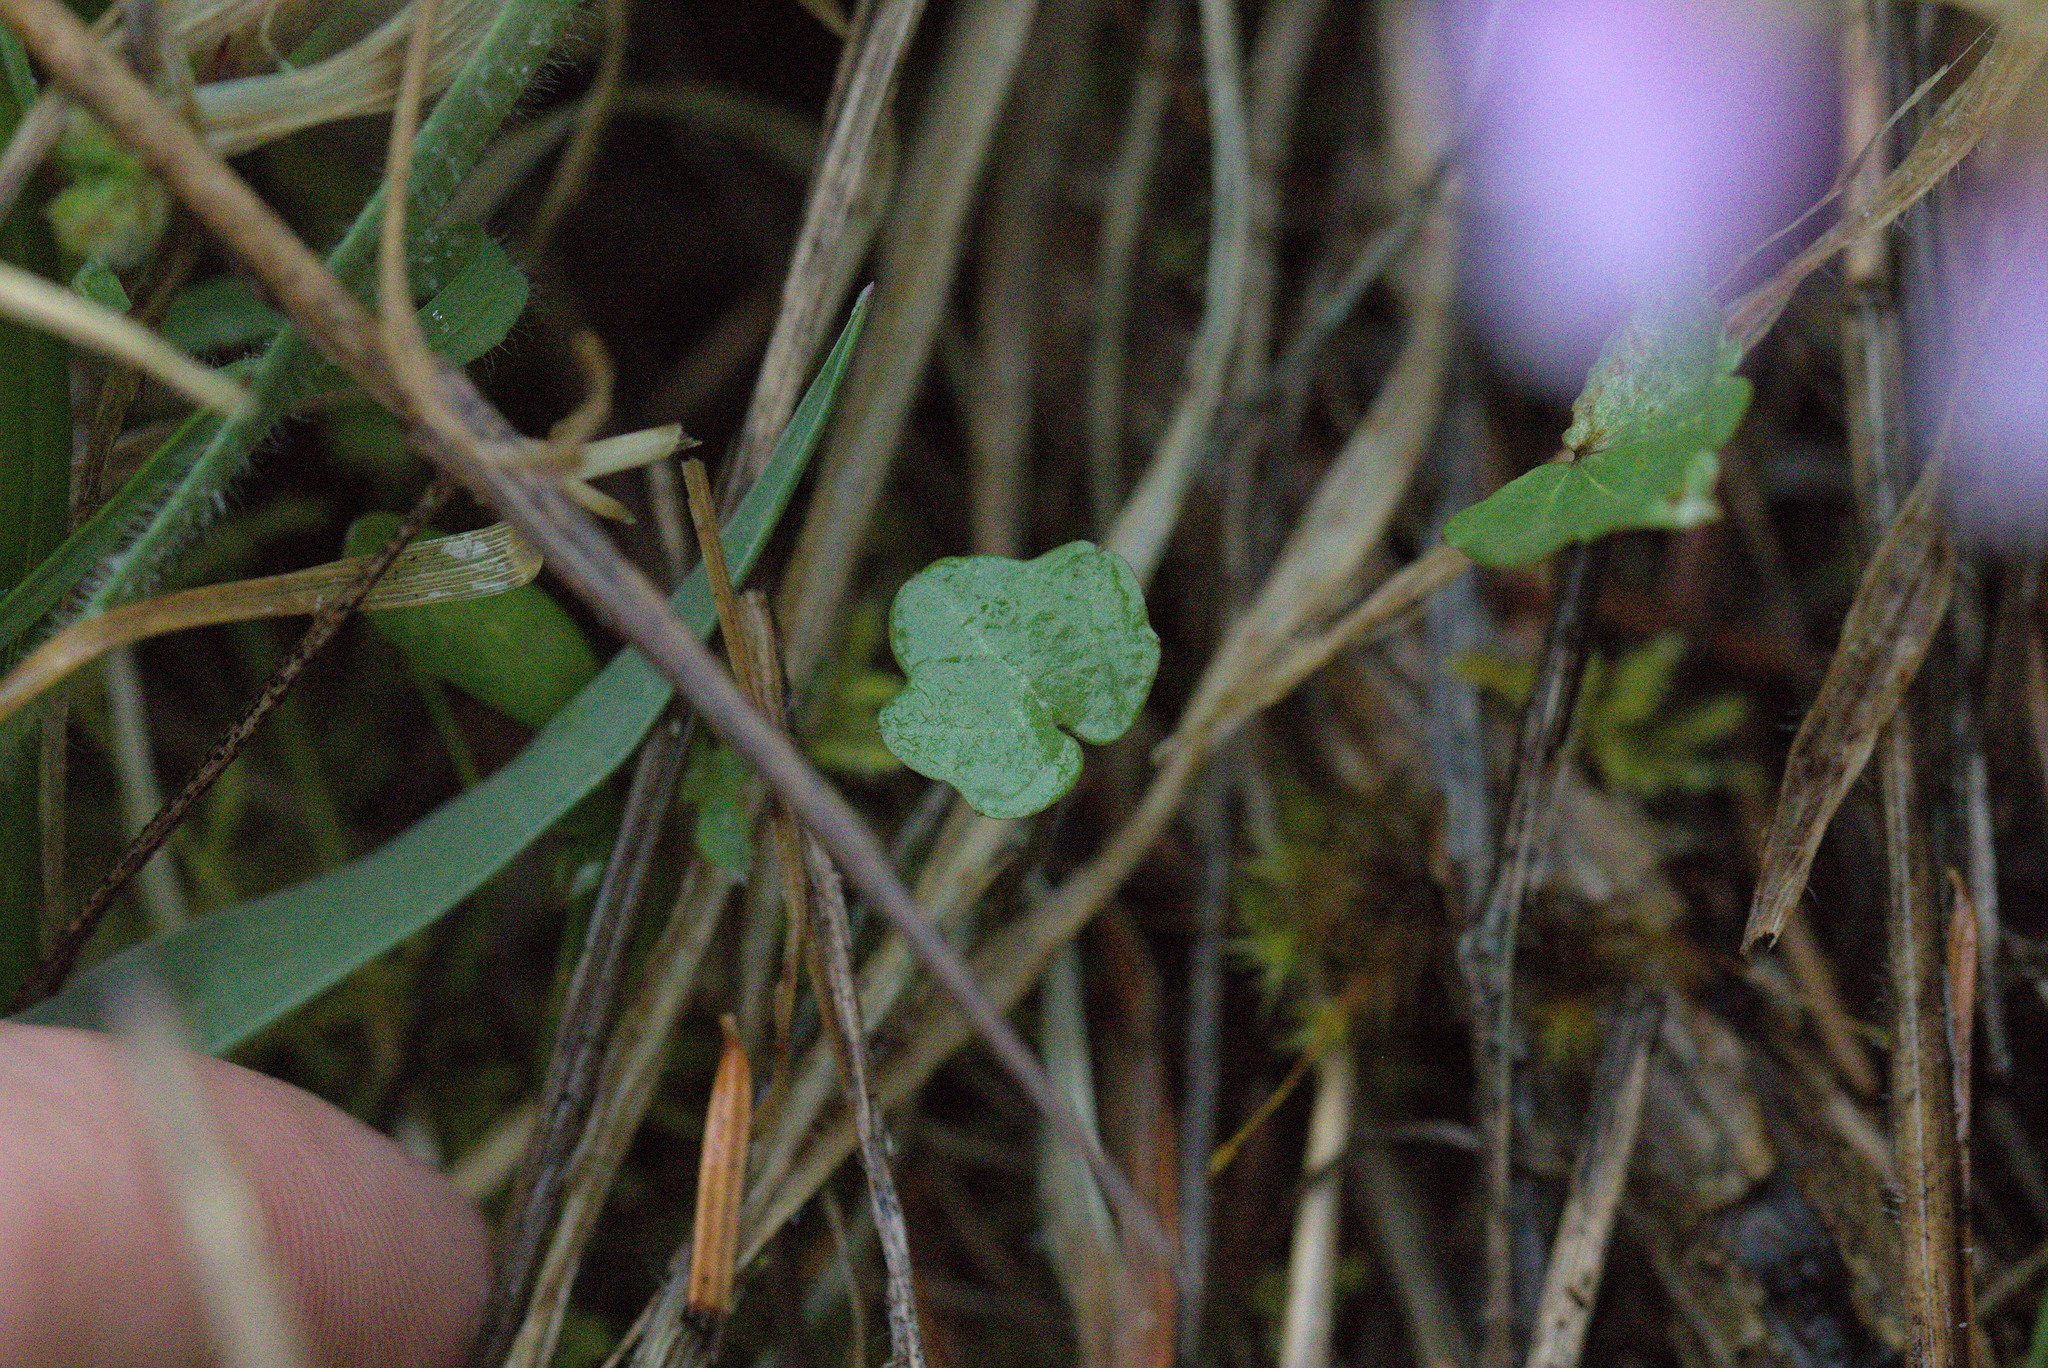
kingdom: Plantae
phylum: Tracheophyta
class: Magnoliopsida
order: Brassicales
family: Brassicaceae
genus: Cardamine
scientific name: Cardamine nuttallii
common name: Nuttall's toothwort
